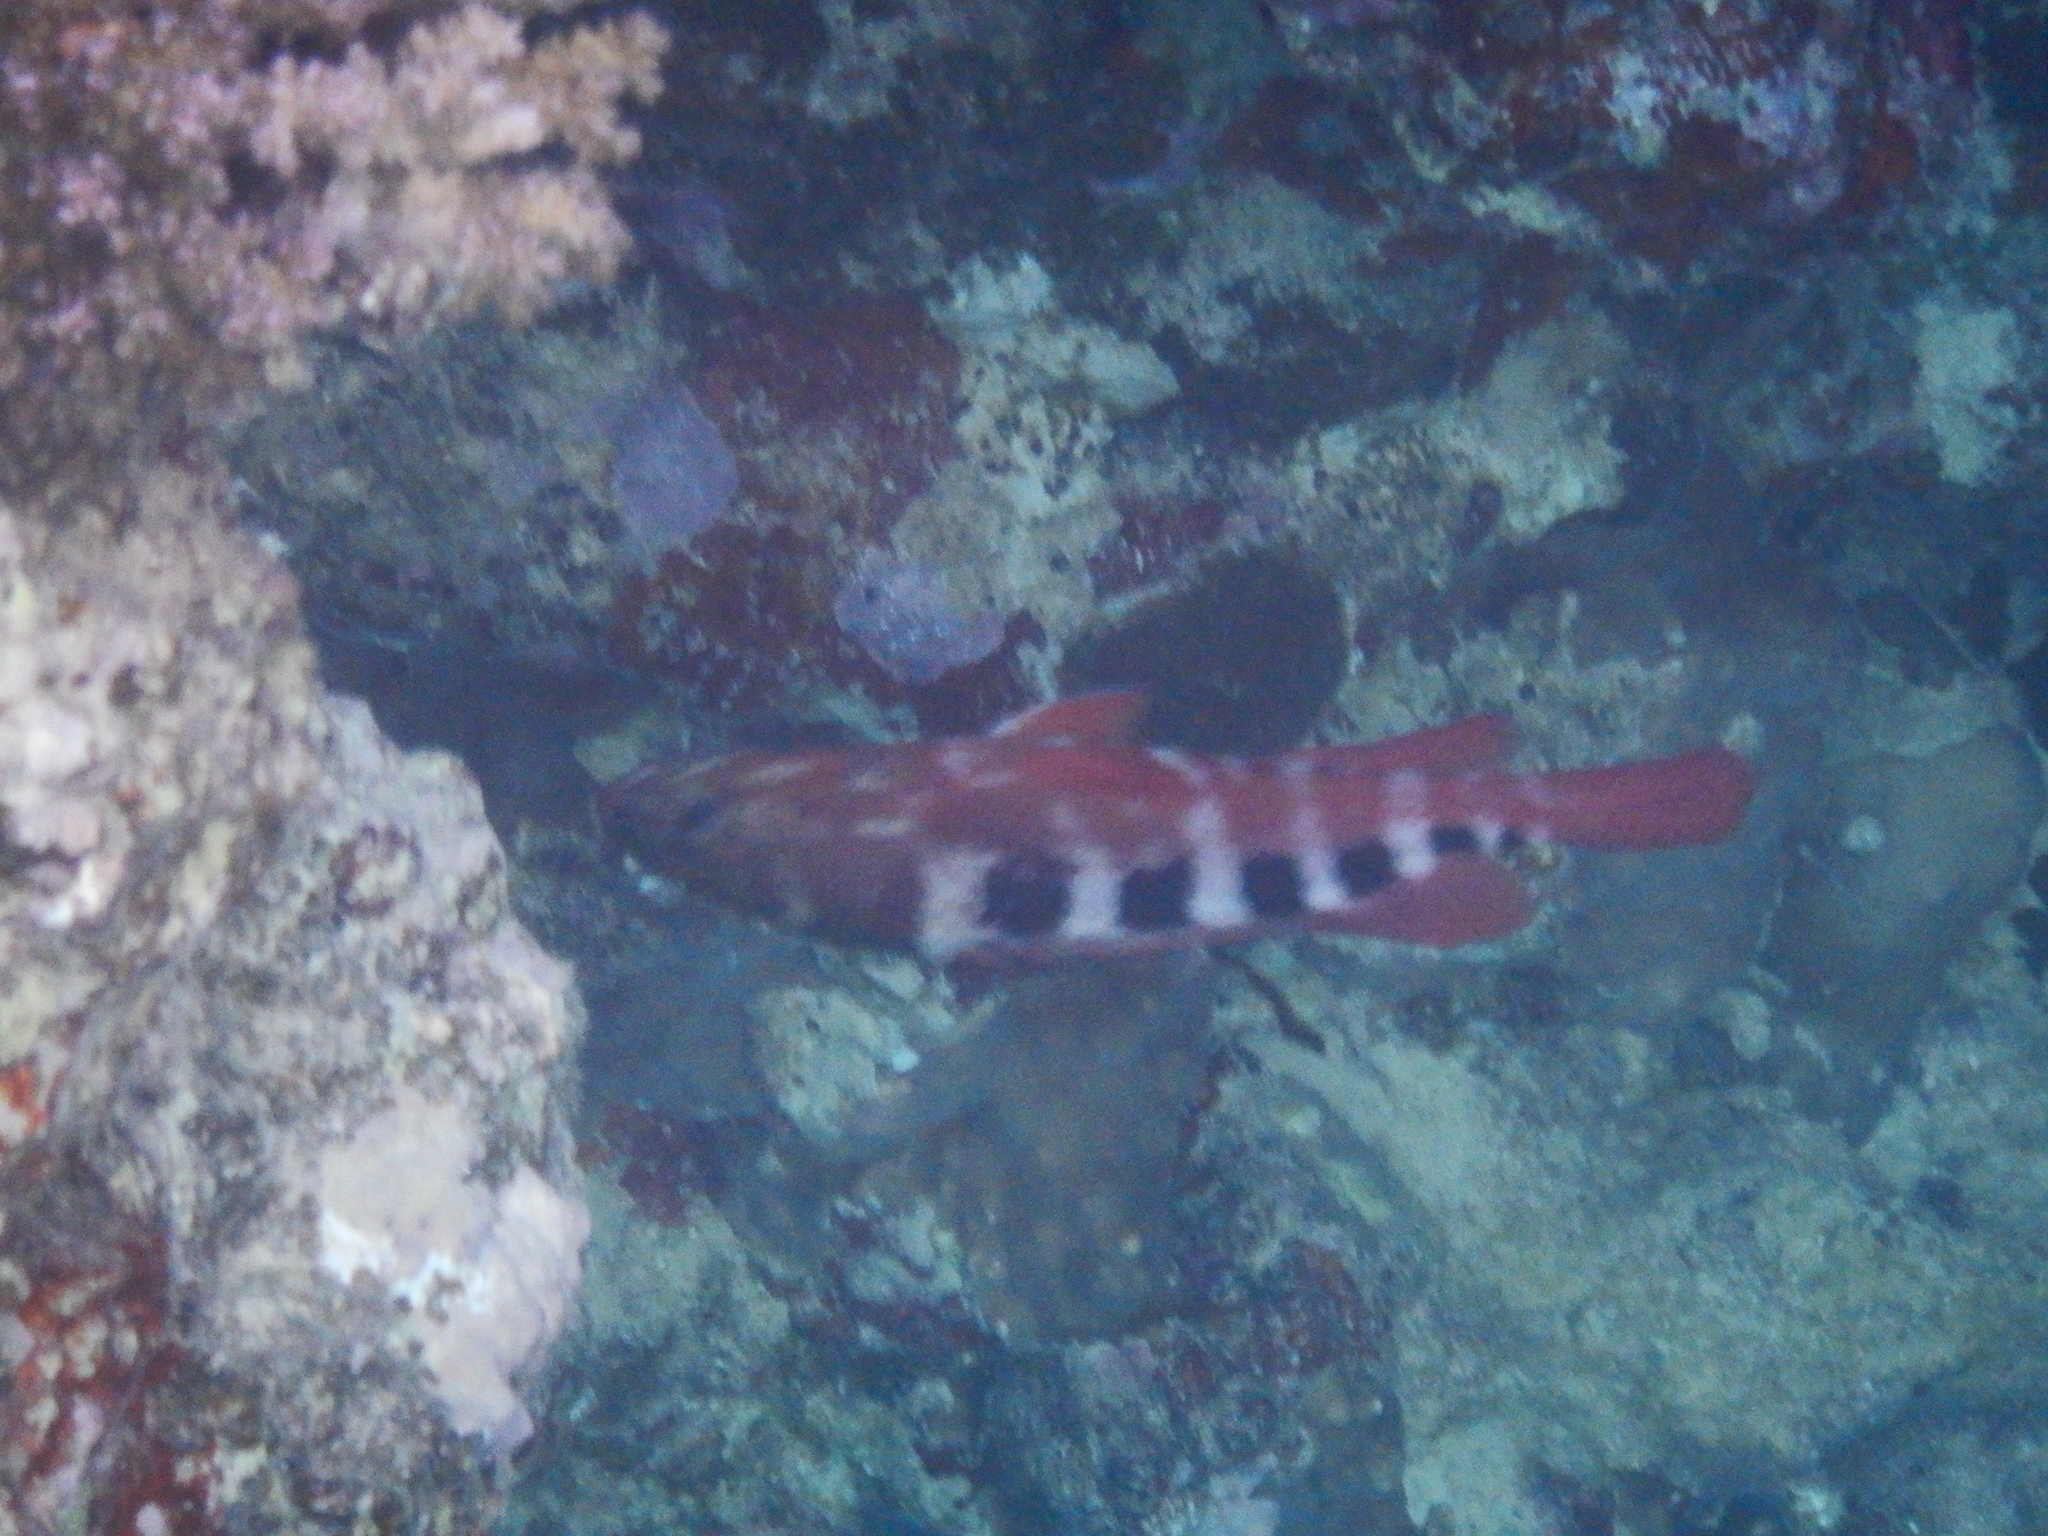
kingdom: Animalia
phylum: Chordata
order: Perciformes
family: Serranidae
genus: Cephalopholis
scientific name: Cephalopholis sexmaculata
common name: Sixblotch hind
